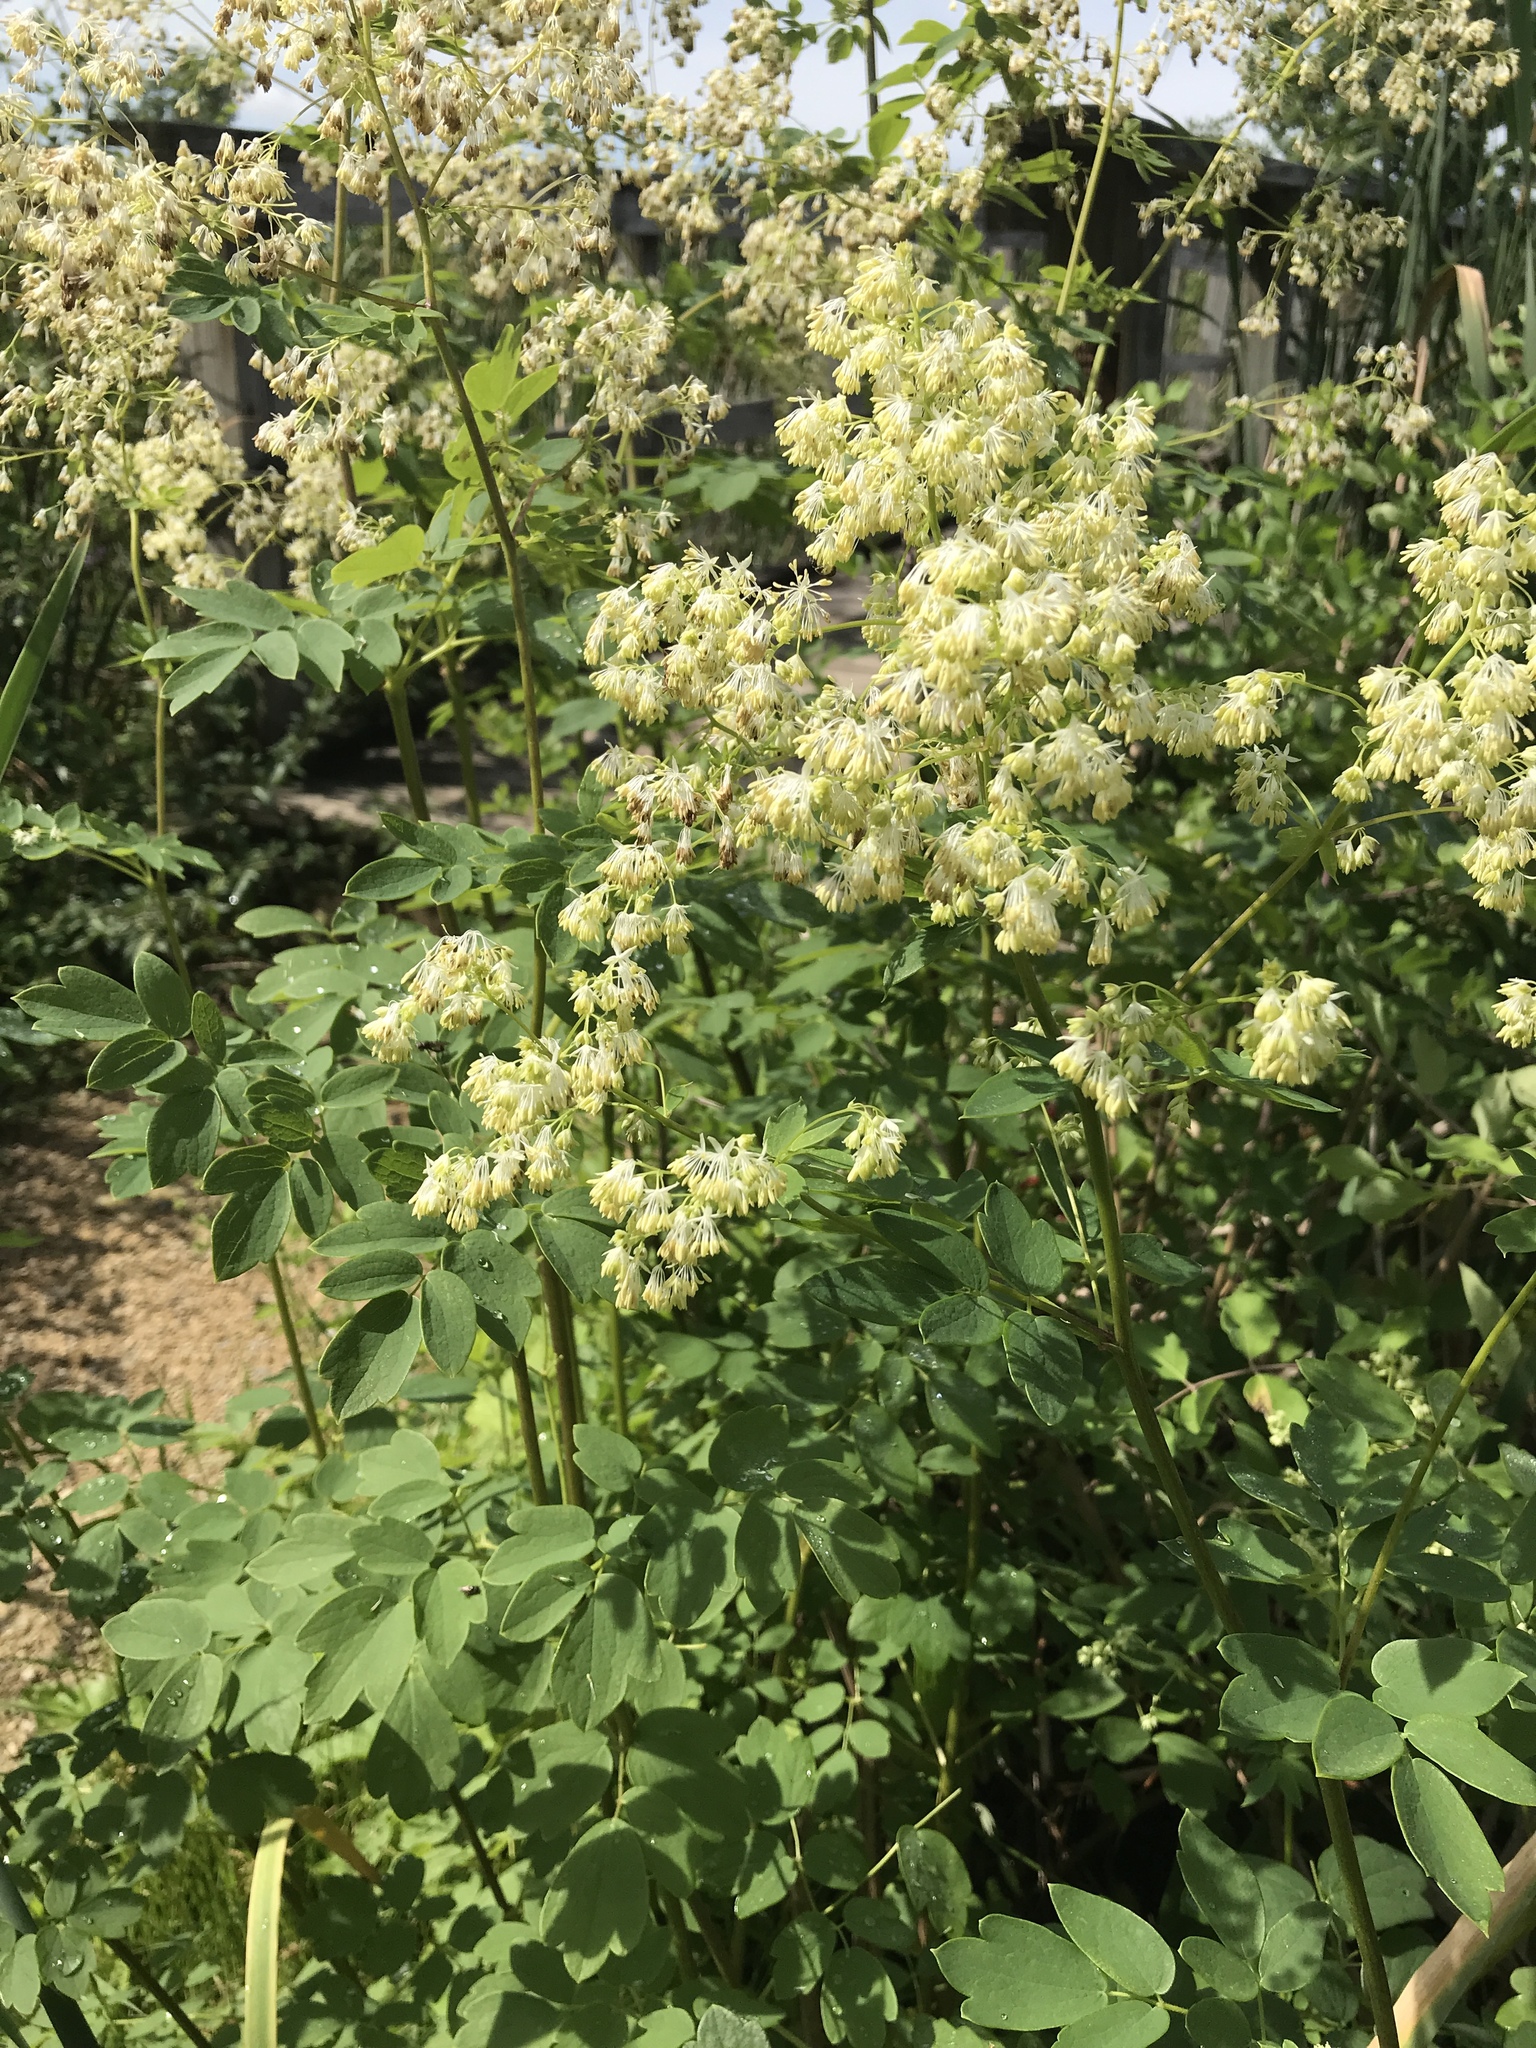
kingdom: Plantae
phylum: Tracheophyta
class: Magnoliopsida
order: Ranunculales
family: Ranunculaceae
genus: Thalictrum
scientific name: Thalictrum dasycarpum
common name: Purple meadow-rue
